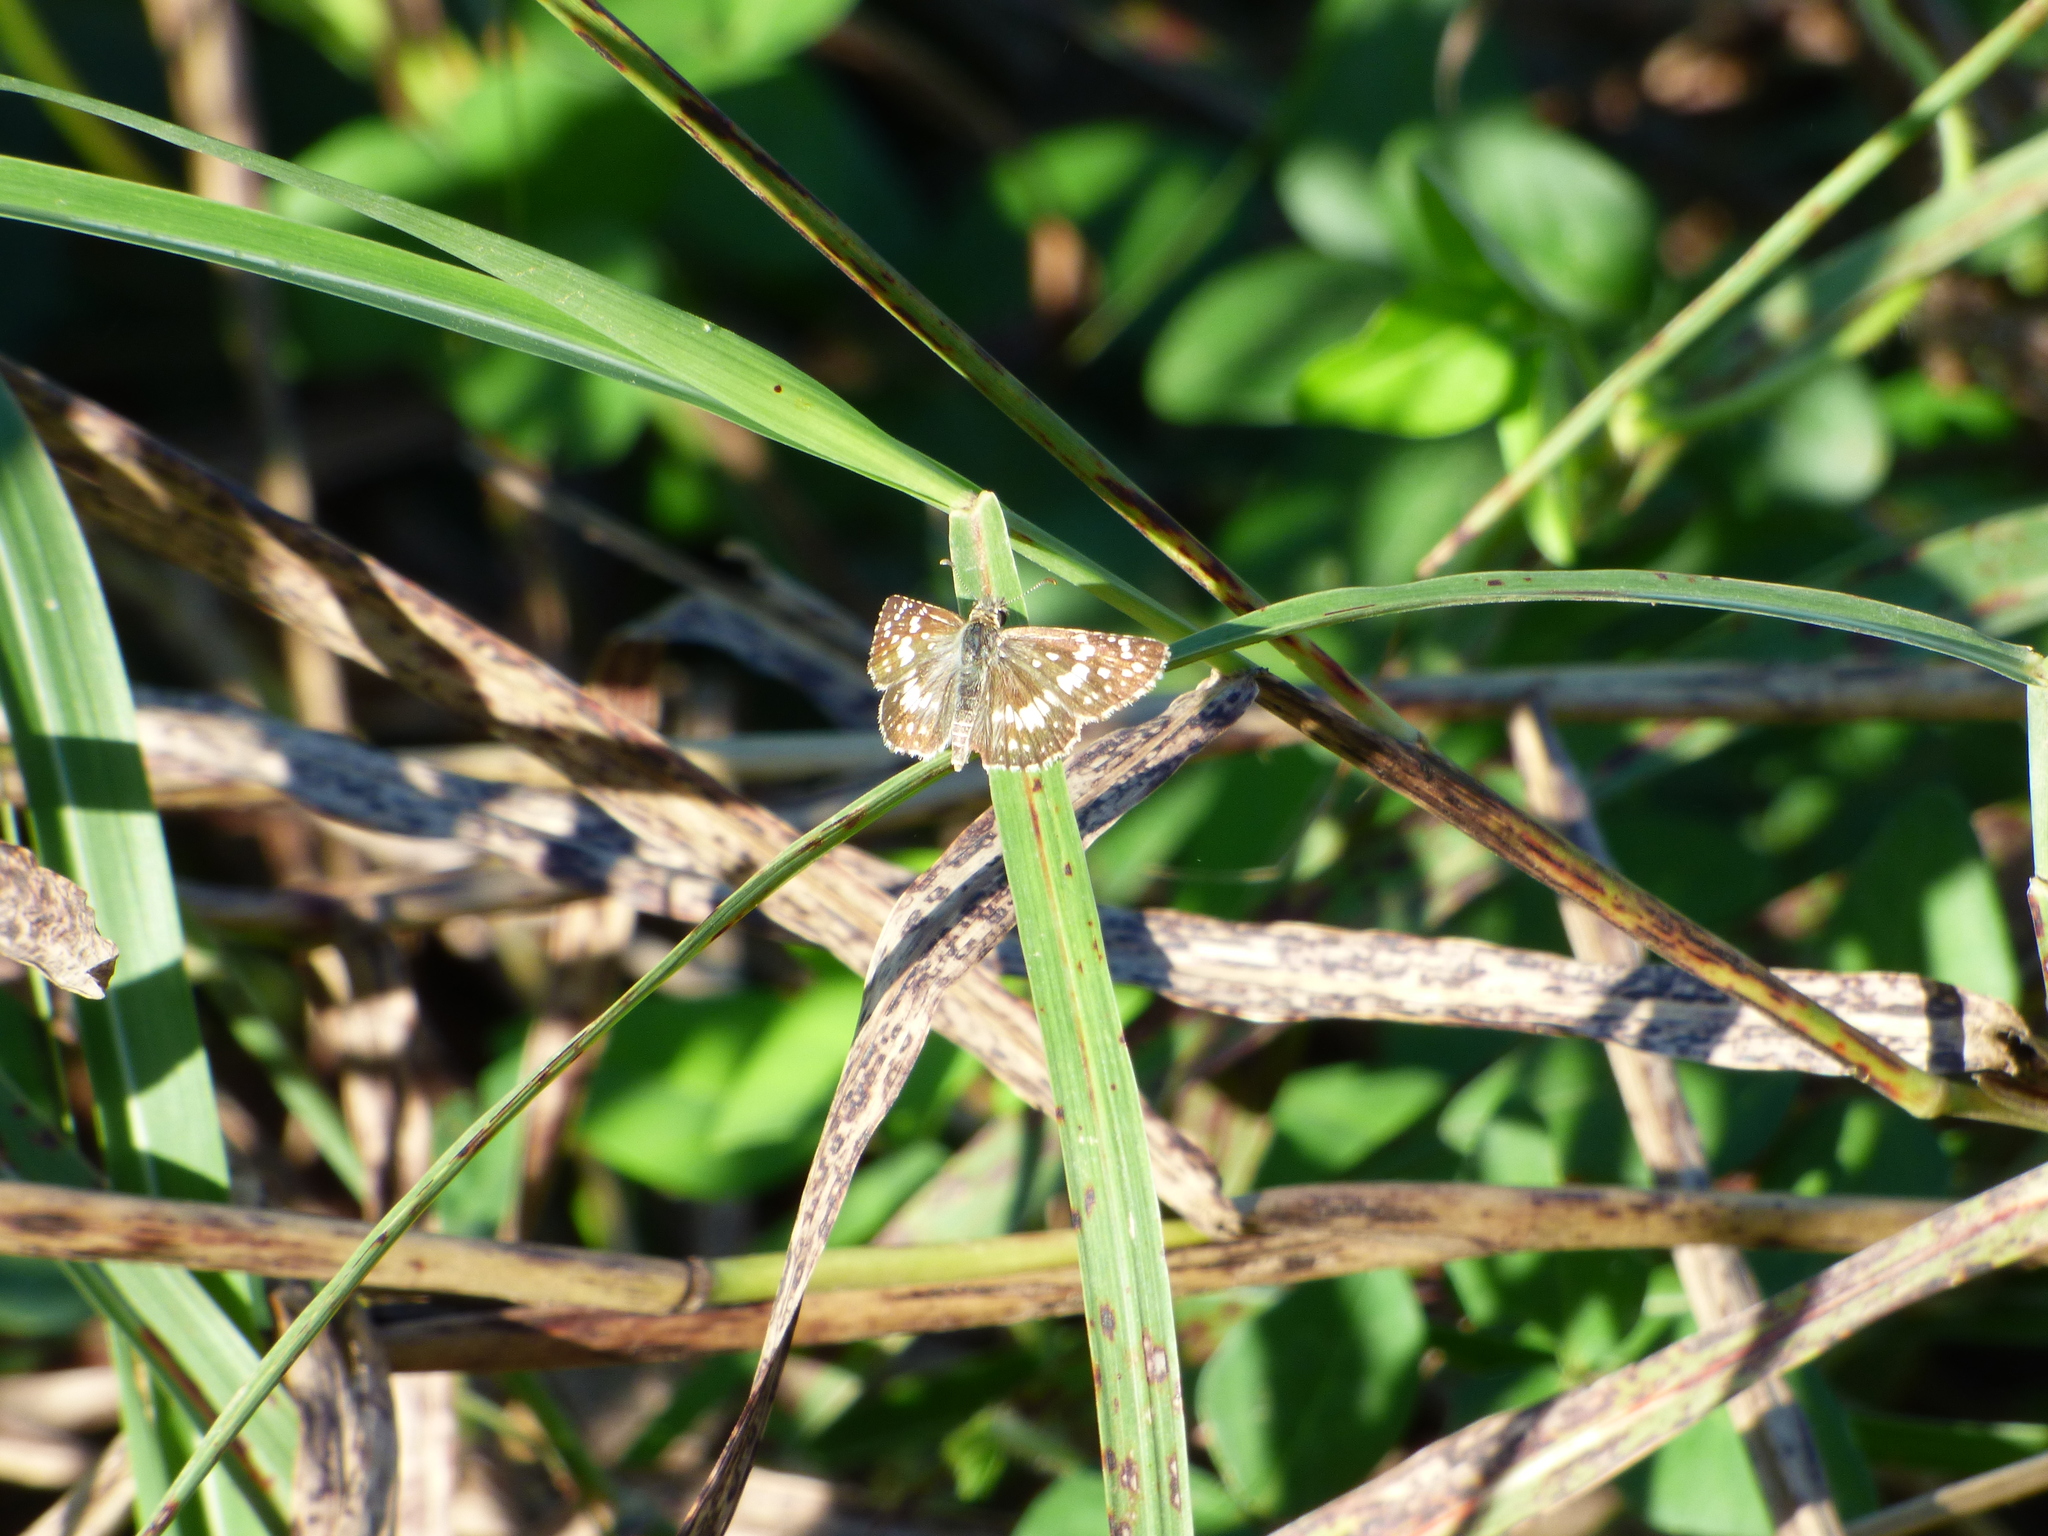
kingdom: Animalia
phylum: Arthropoda
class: Insecta
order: Lepidoptera
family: Hesperiidae
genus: Burnsius
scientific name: Burnsius orcynoides
